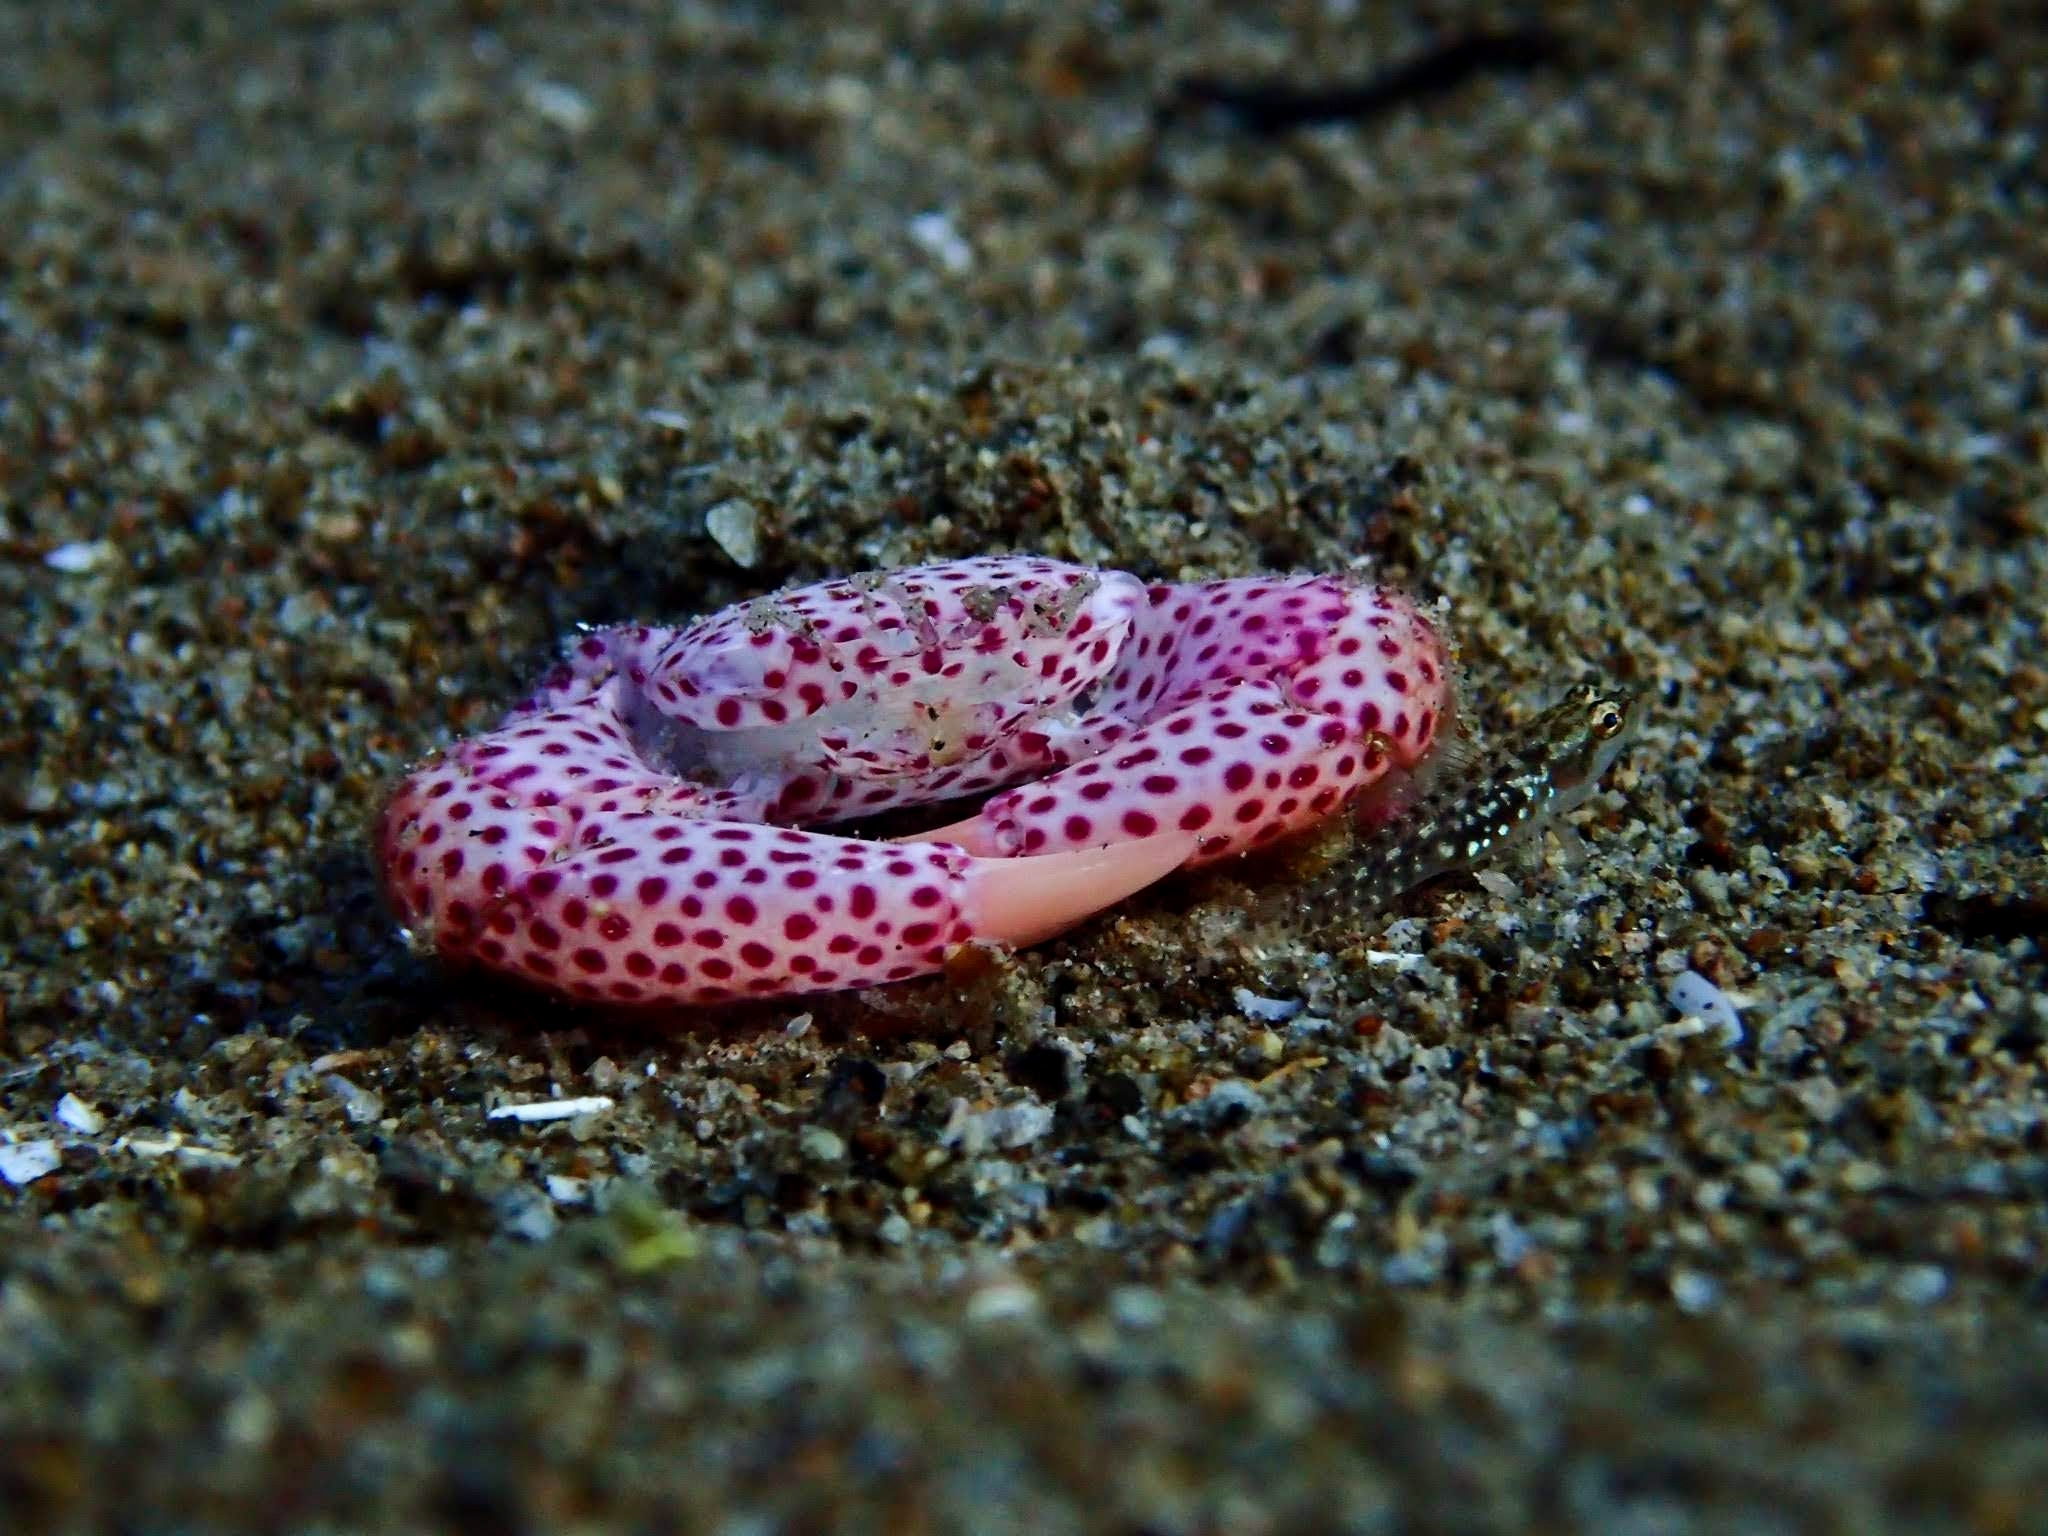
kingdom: Animalia
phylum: Arthropoda
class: Malacostraca
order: Decapoda
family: Trapeziidae
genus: Trapezia
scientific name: Trapezia tigrina
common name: Red-spotted guard crab
